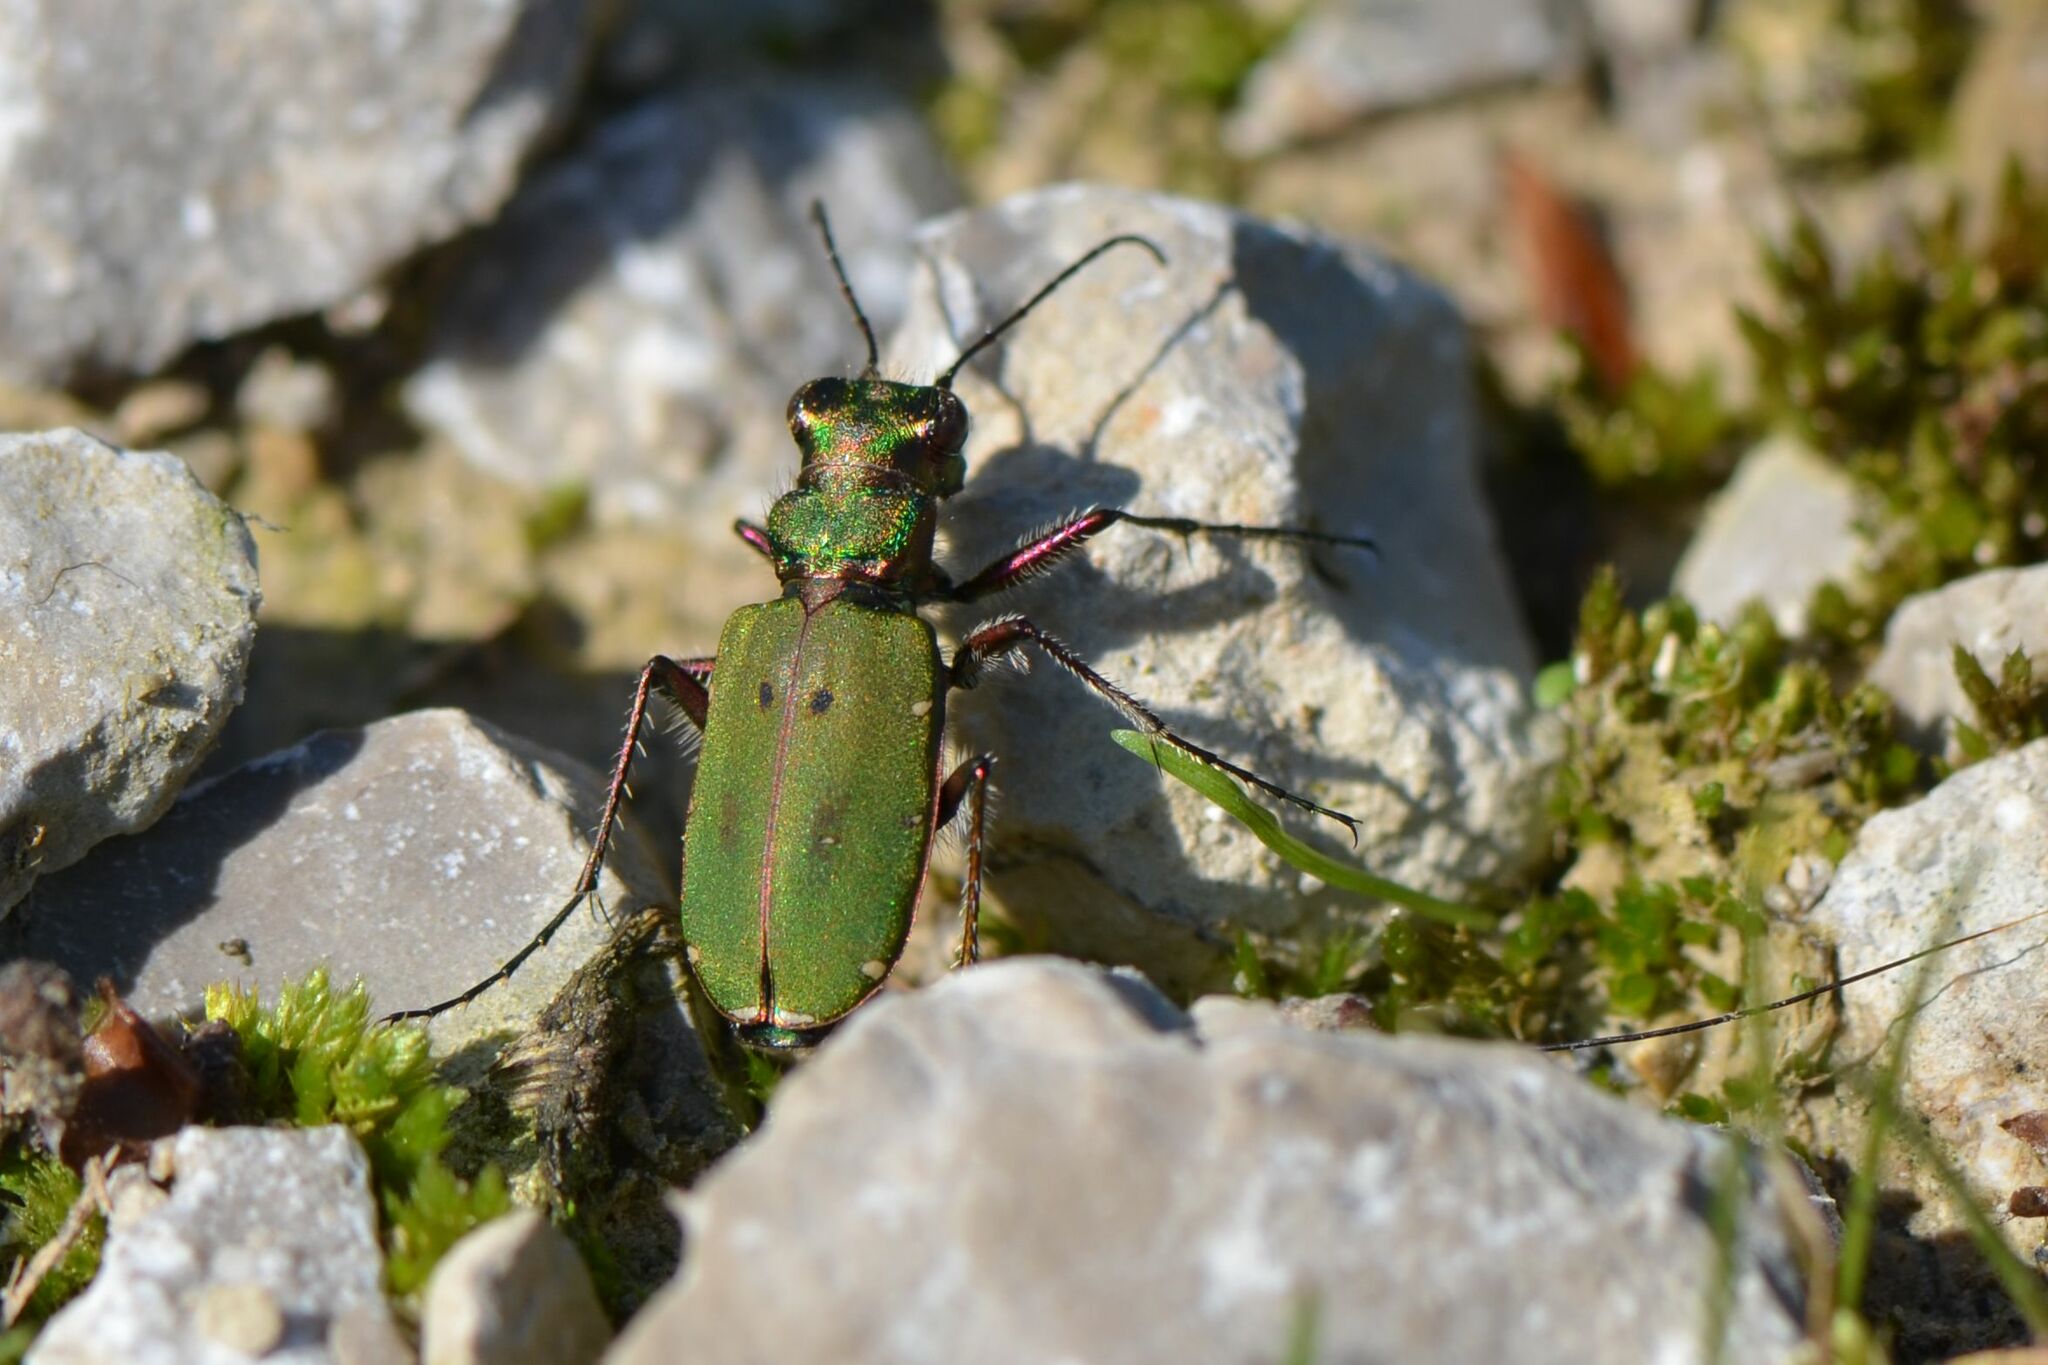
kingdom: Animalia
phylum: Arthropoda
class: Insecta
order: Coleoptera
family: Carabidae
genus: Cicindela
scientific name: Cicindela campestris
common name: Common tiger beetle
